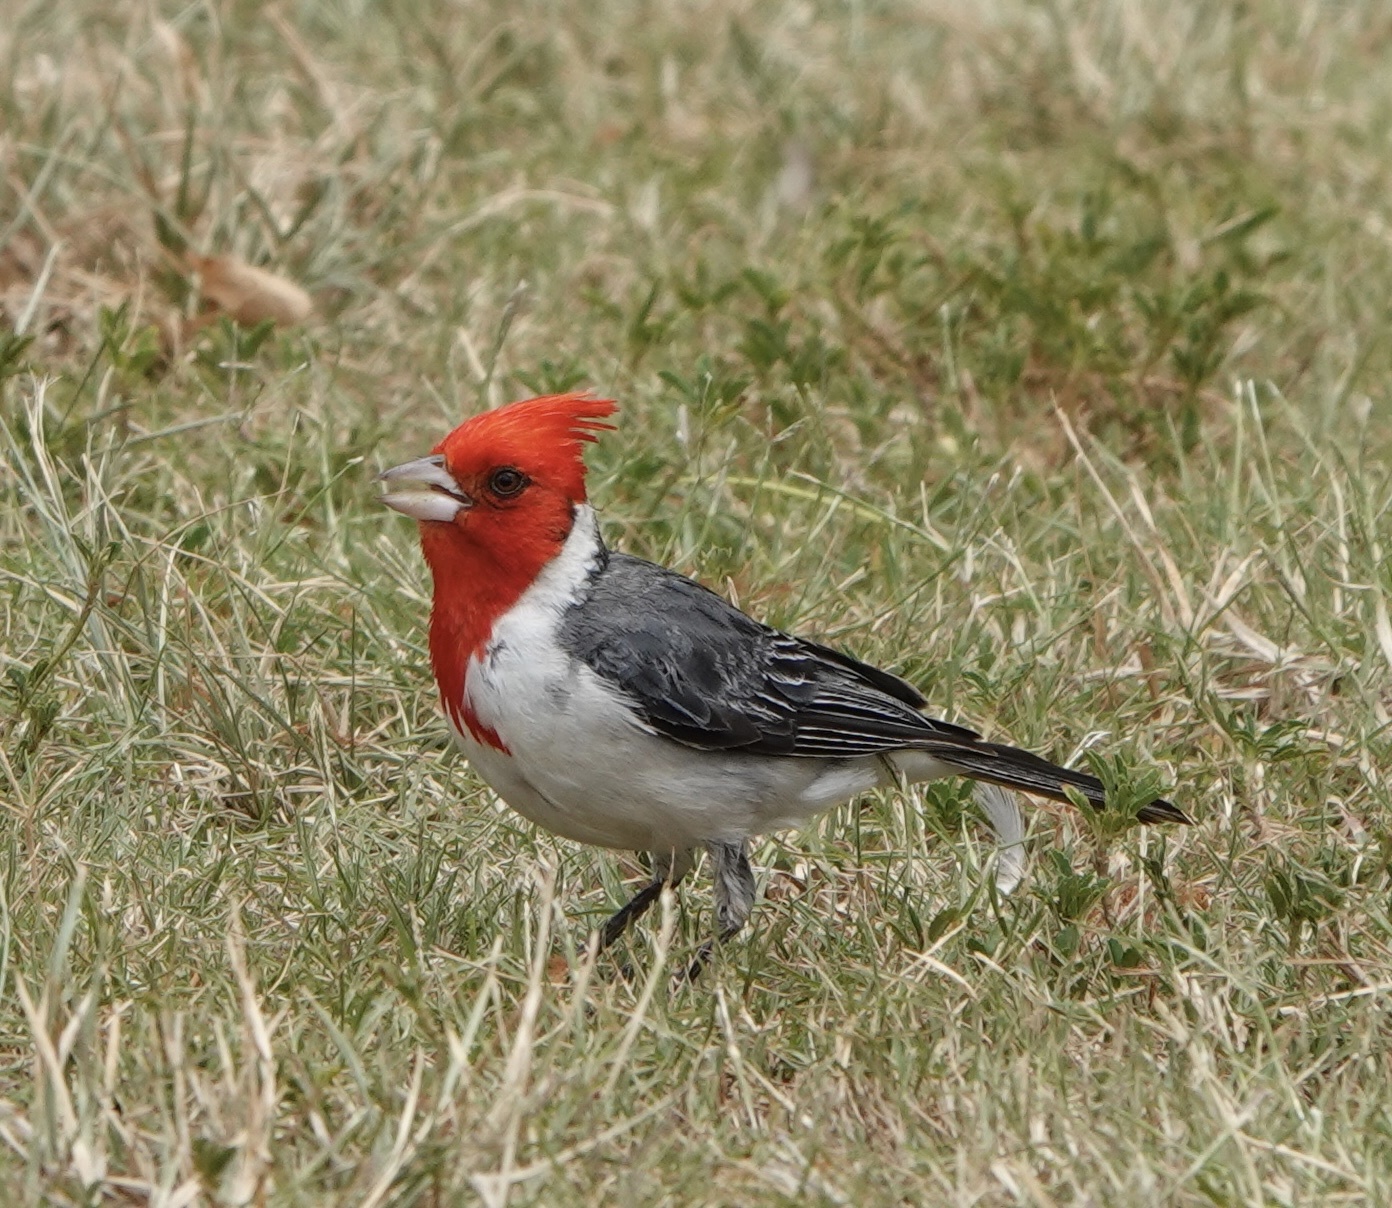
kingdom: Animalia
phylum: Chordata
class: Aves
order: Passeriformes
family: Thraupidae
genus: Paroaria
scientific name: Paroaria coronata
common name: Red-crested cardinal
